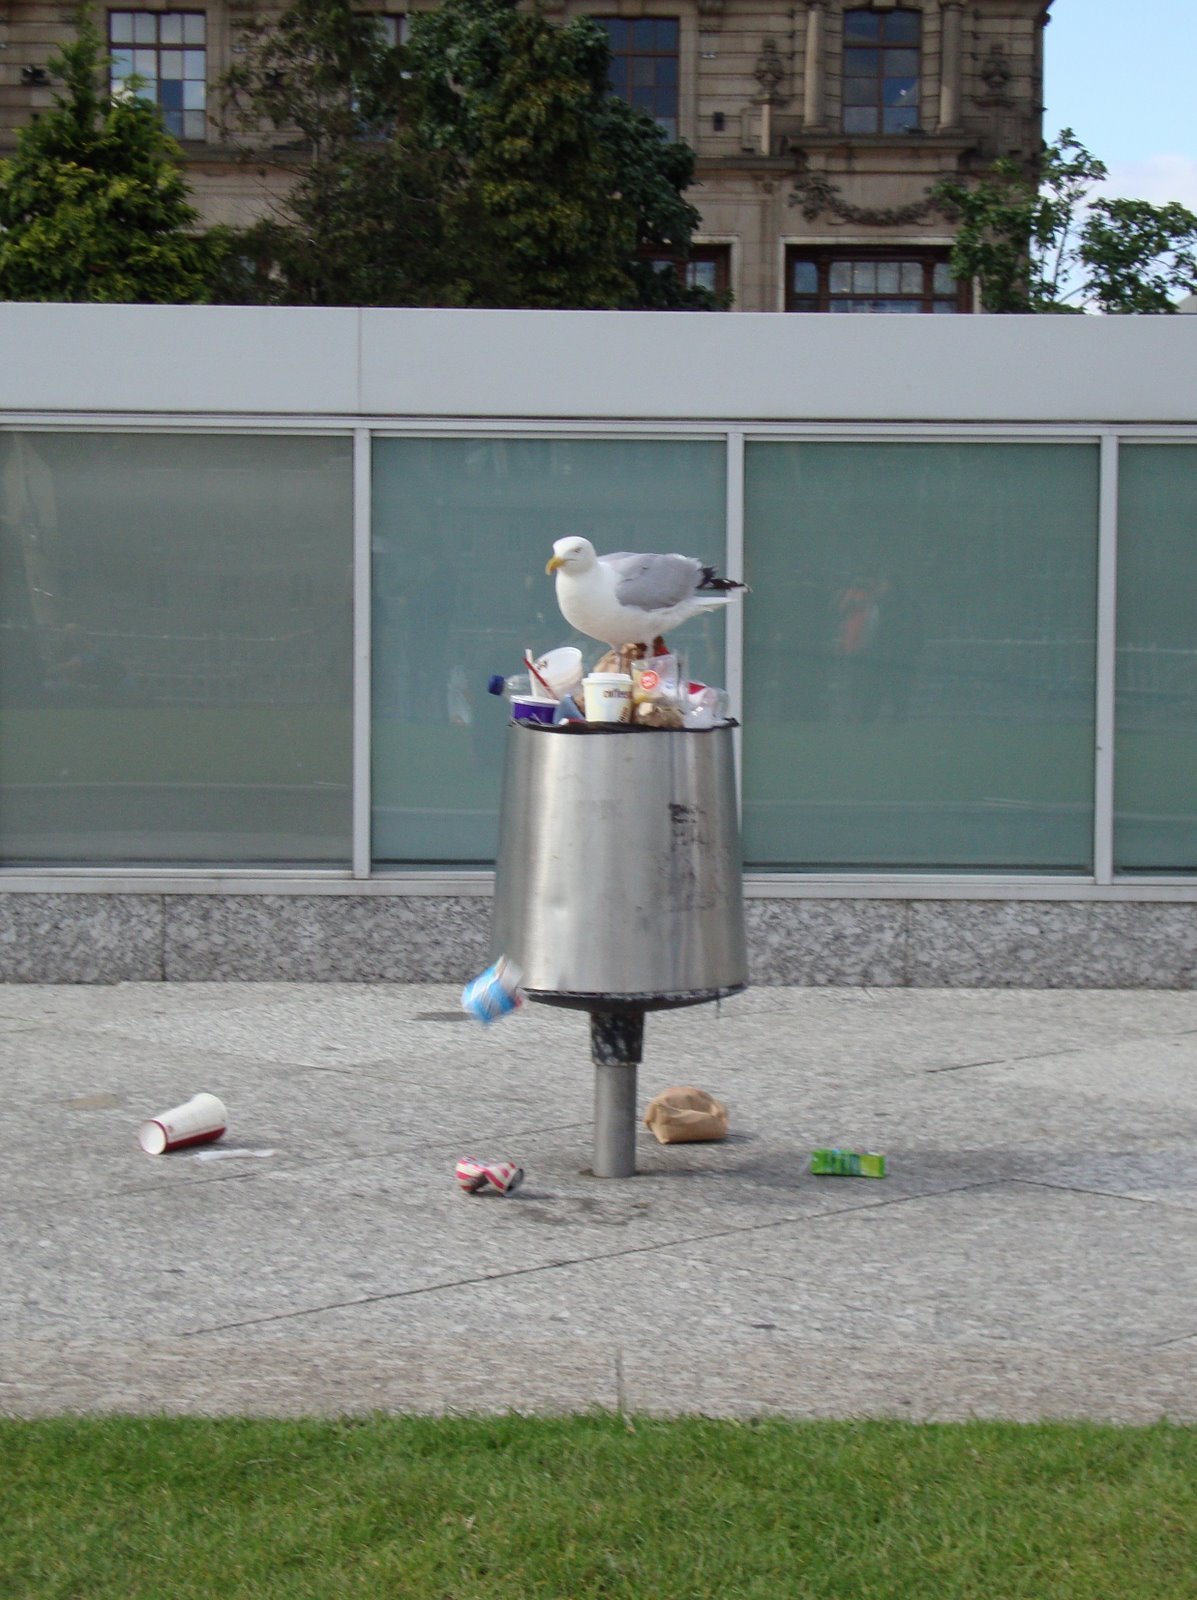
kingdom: Animalia
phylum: Chordata
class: Aves
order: Charadriiformes
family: Laridae
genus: Larus
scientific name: Larus argentatus
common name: Herring gull
